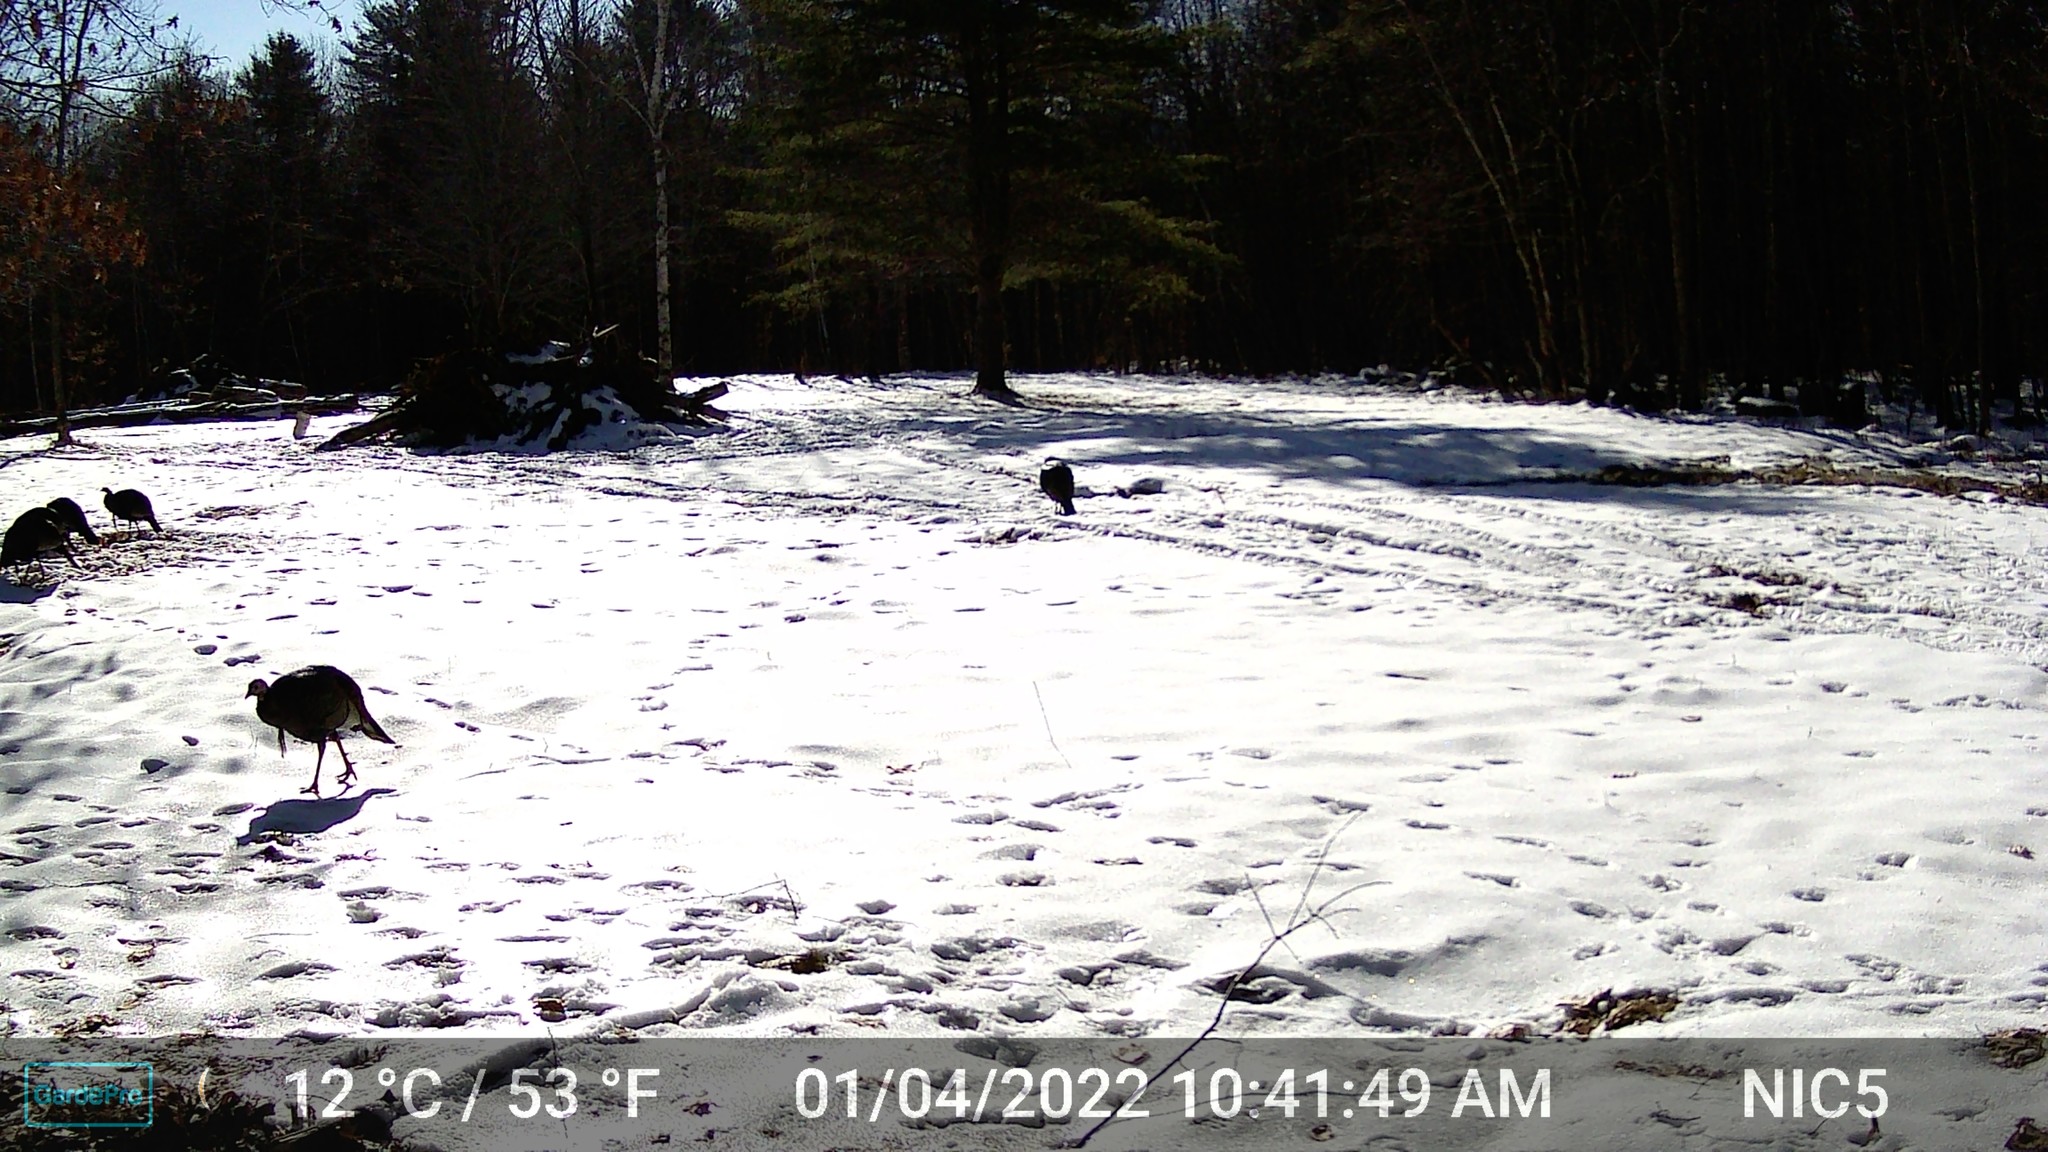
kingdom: Animalia
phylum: Chordata
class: Aves
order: Galliformes
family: Phasianidae
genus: Meleagris
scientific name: Meleagris gallopavo
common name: Wild turkey
